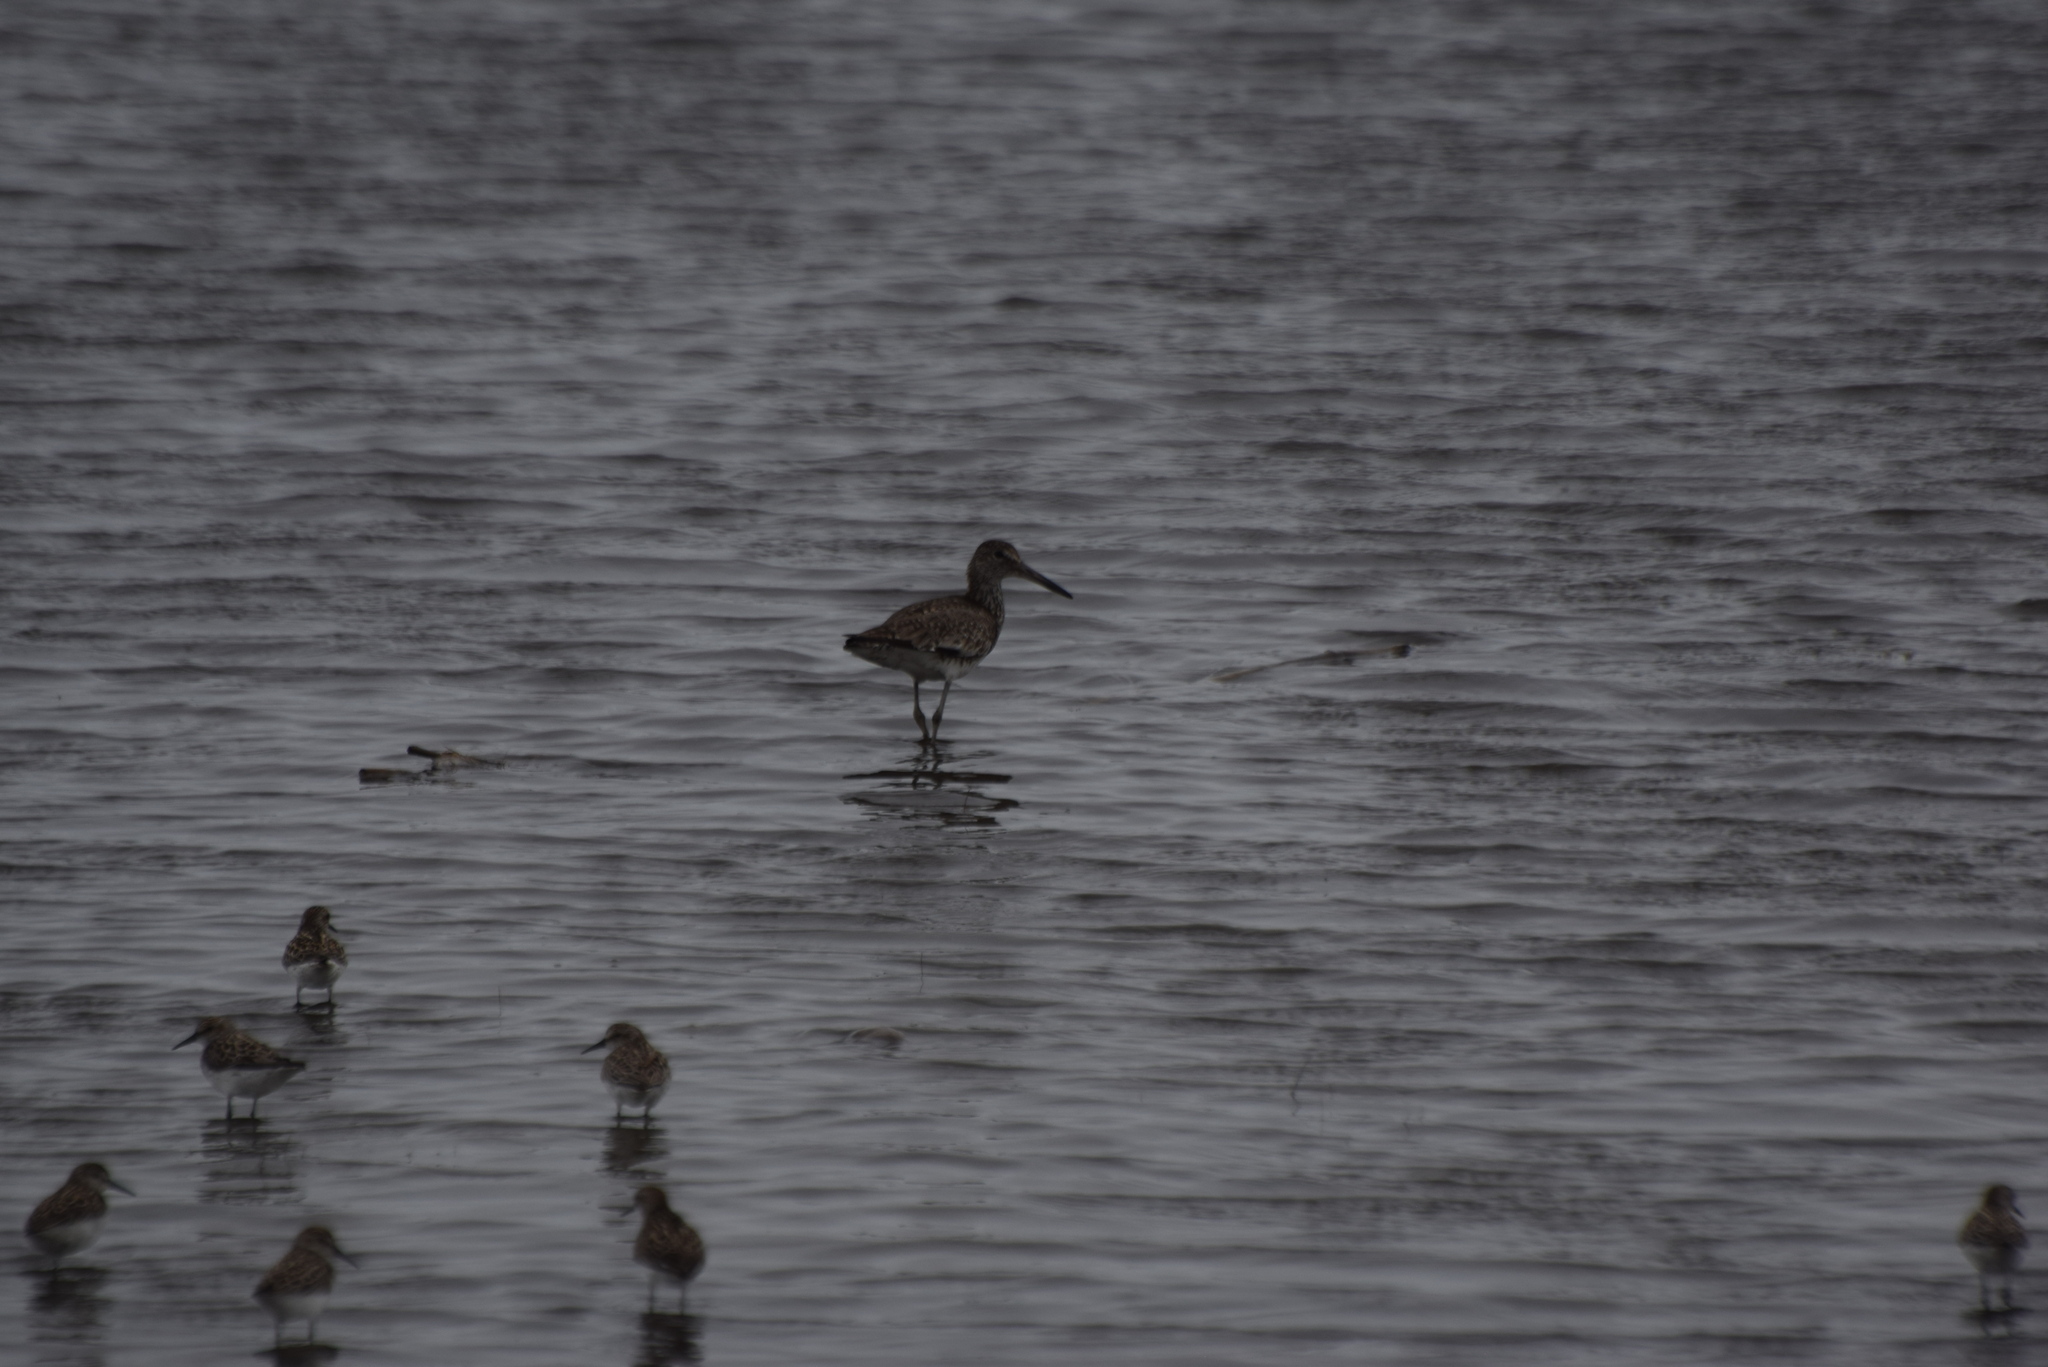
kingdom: Animalia
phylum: Chordata
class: Aves
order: Charadriiformes
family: Scolopacidae
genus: Tringa
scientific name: Tringa semipalmata
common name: Willet
